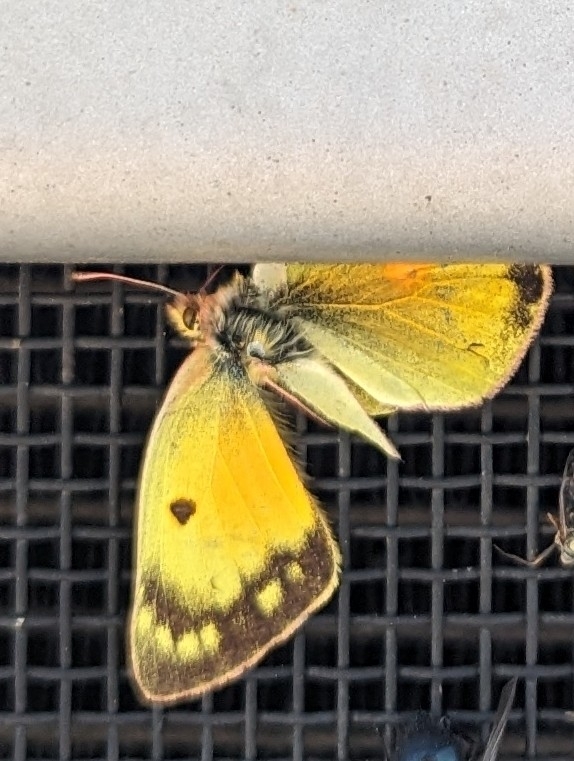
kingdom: Animalia
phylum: Arthropoda
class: Insecta
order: Lepidoptera
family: Pieridae
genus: Colias
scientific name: Colias eurytheme
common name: Alfalfa butterfly
